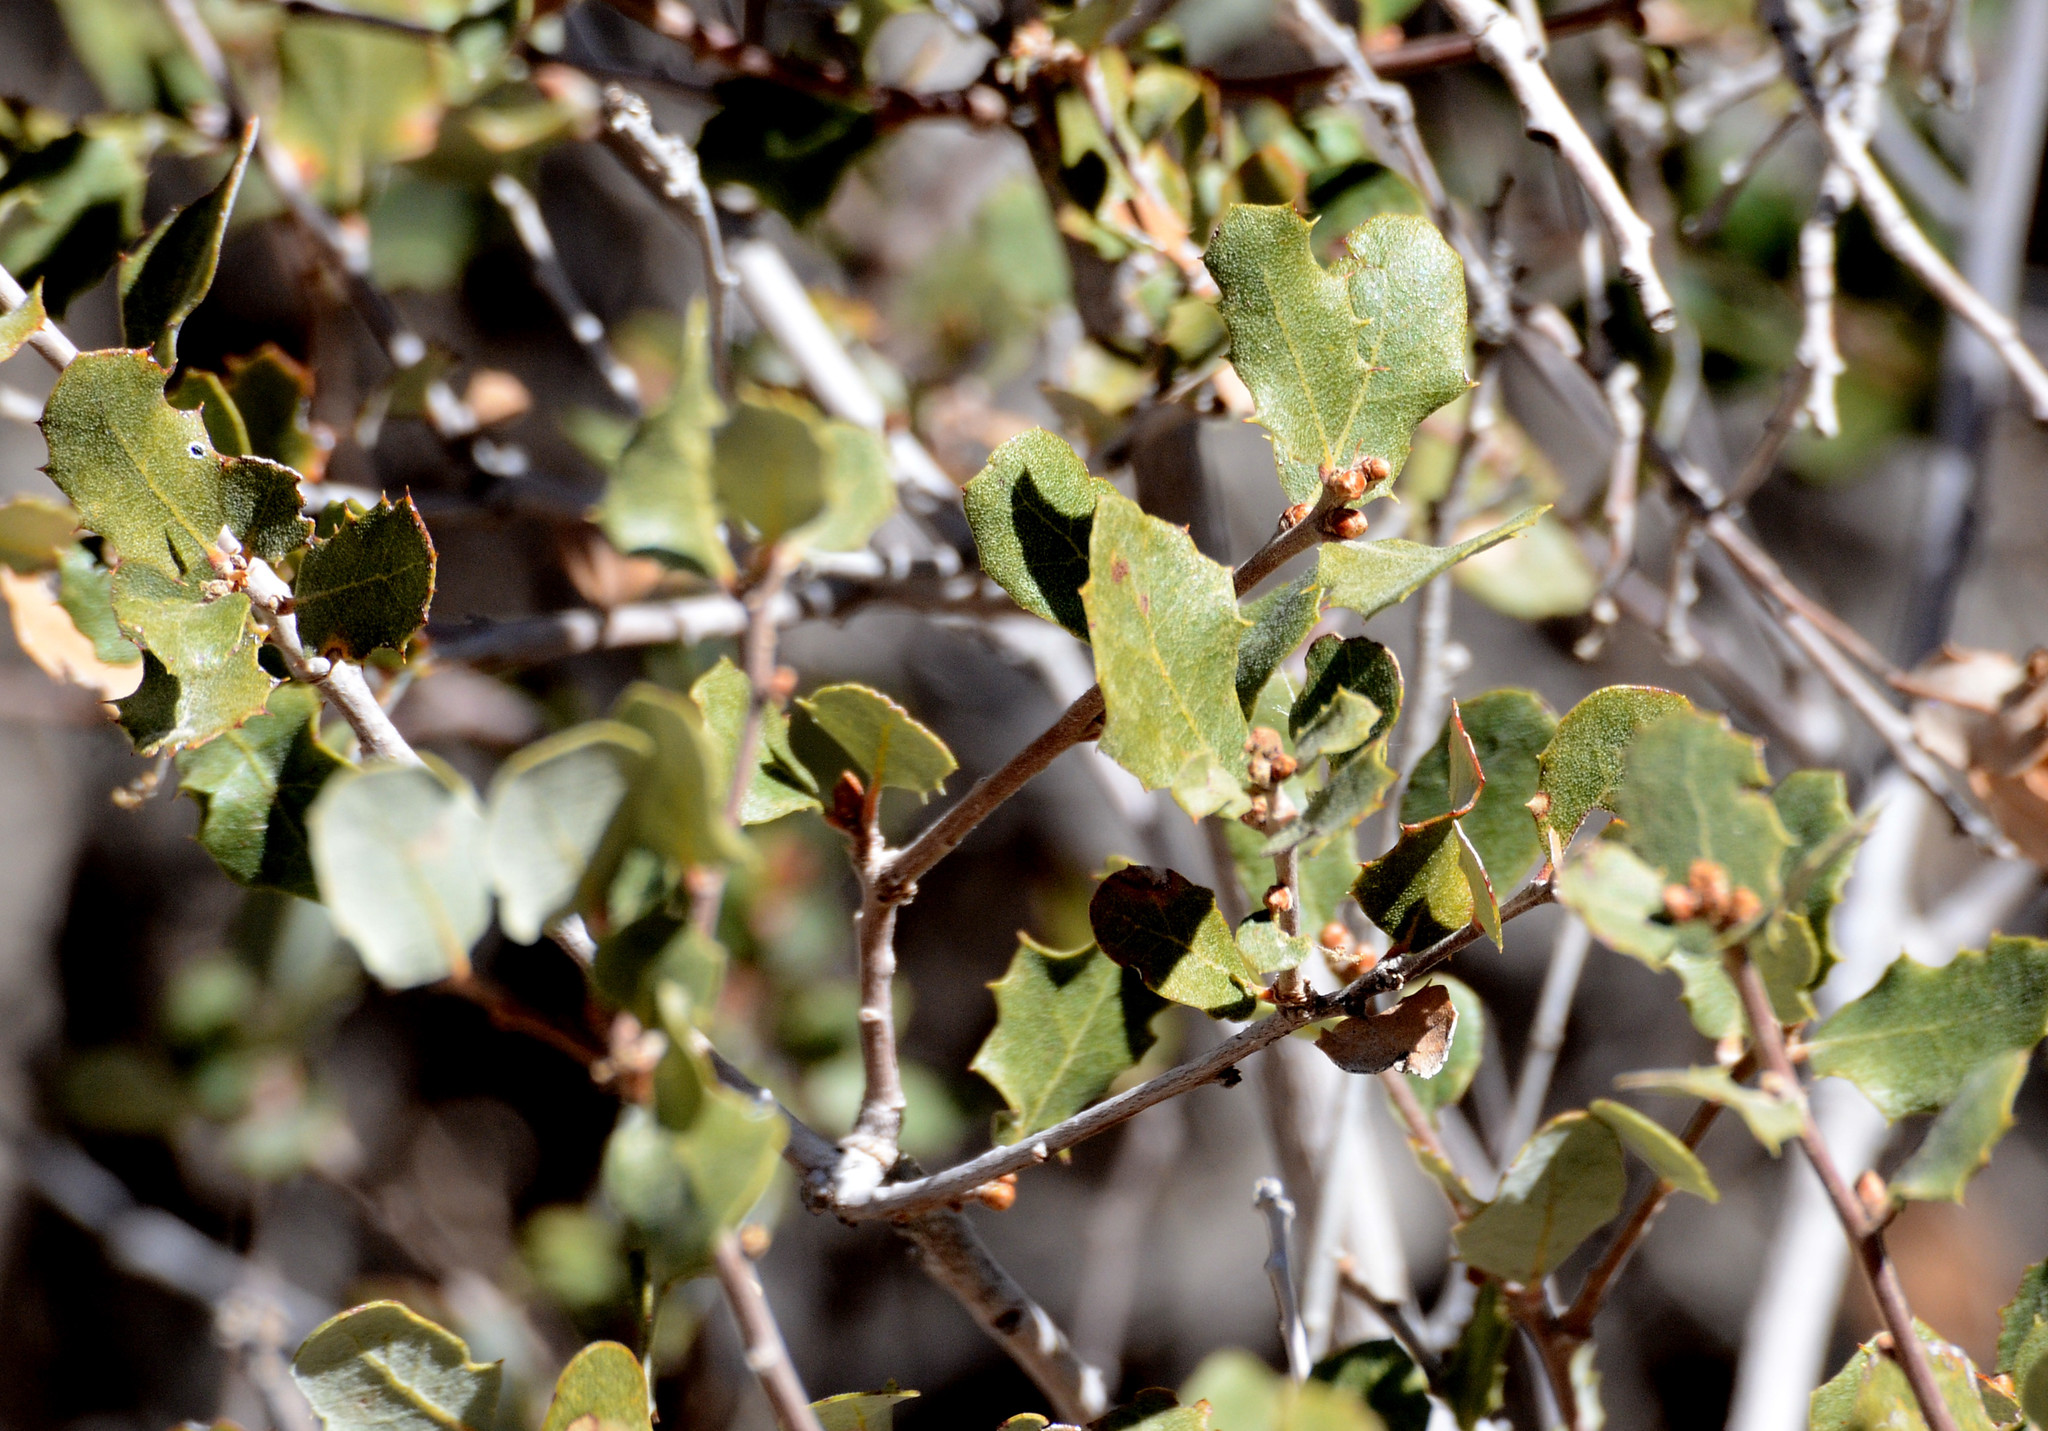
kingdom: Plantae
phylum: Tracheophyta
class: Magnoliopsida
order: Fagales
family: Fagaceae
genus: Quercus
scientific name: Quercus cornelius-mulleri
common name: Muller oak
